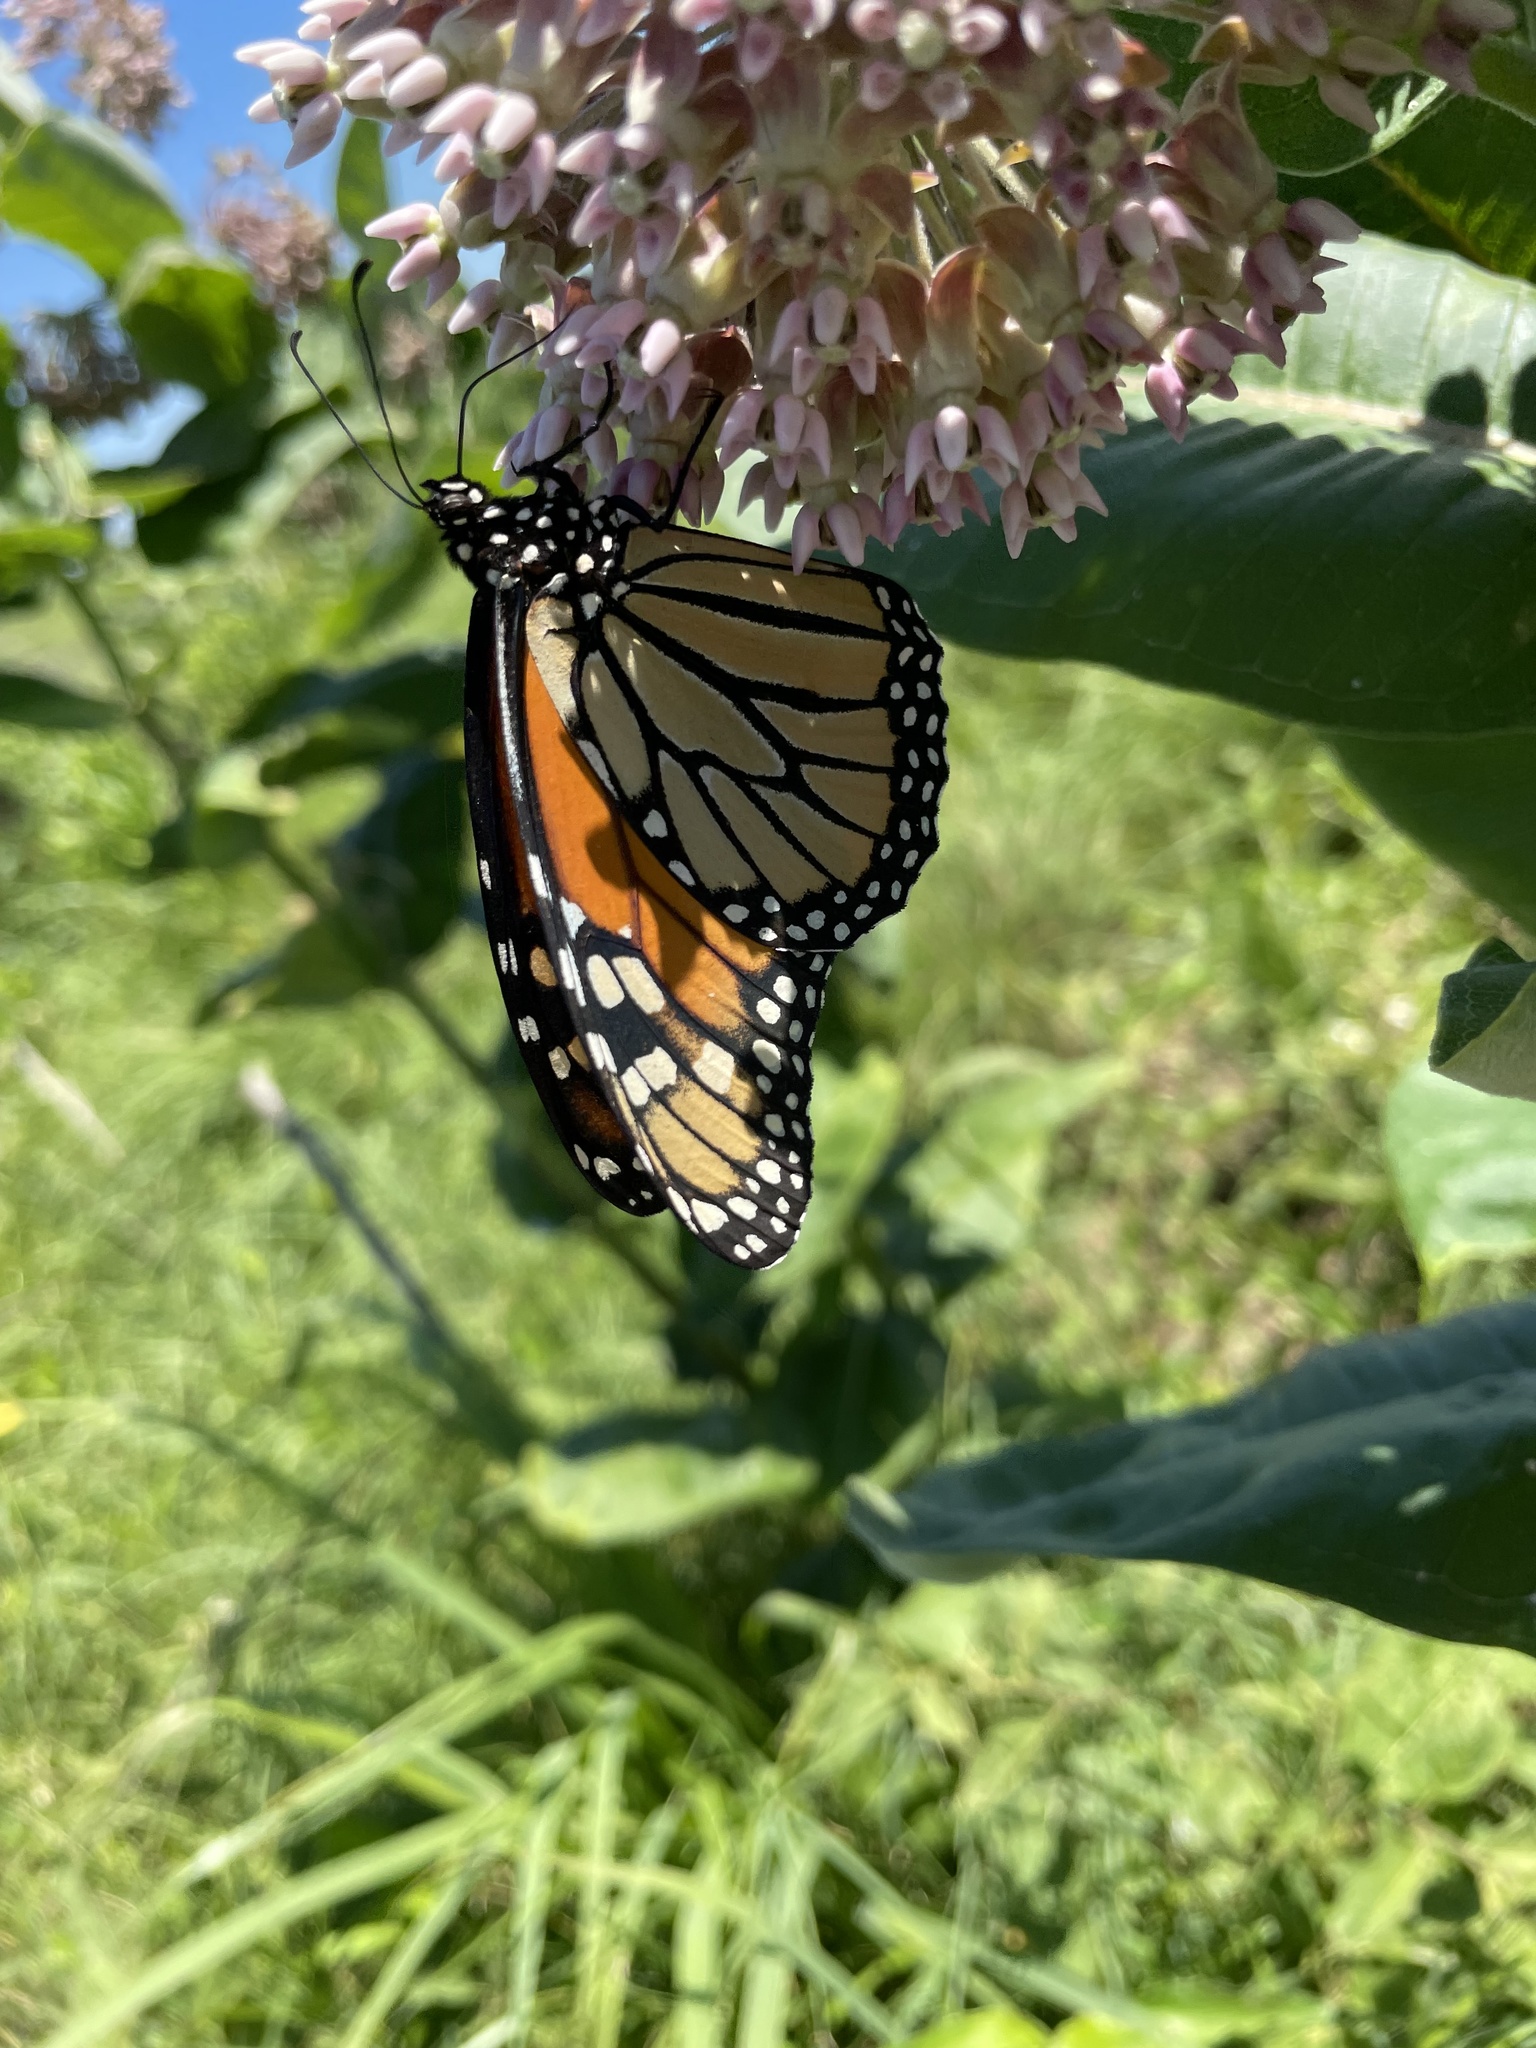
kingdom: Animalia
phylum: Arthropoda
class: Insecta
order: Lepidoptera
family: Nymphalidae
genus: Danaus
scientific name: Danaus plexippus
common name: Monarch
